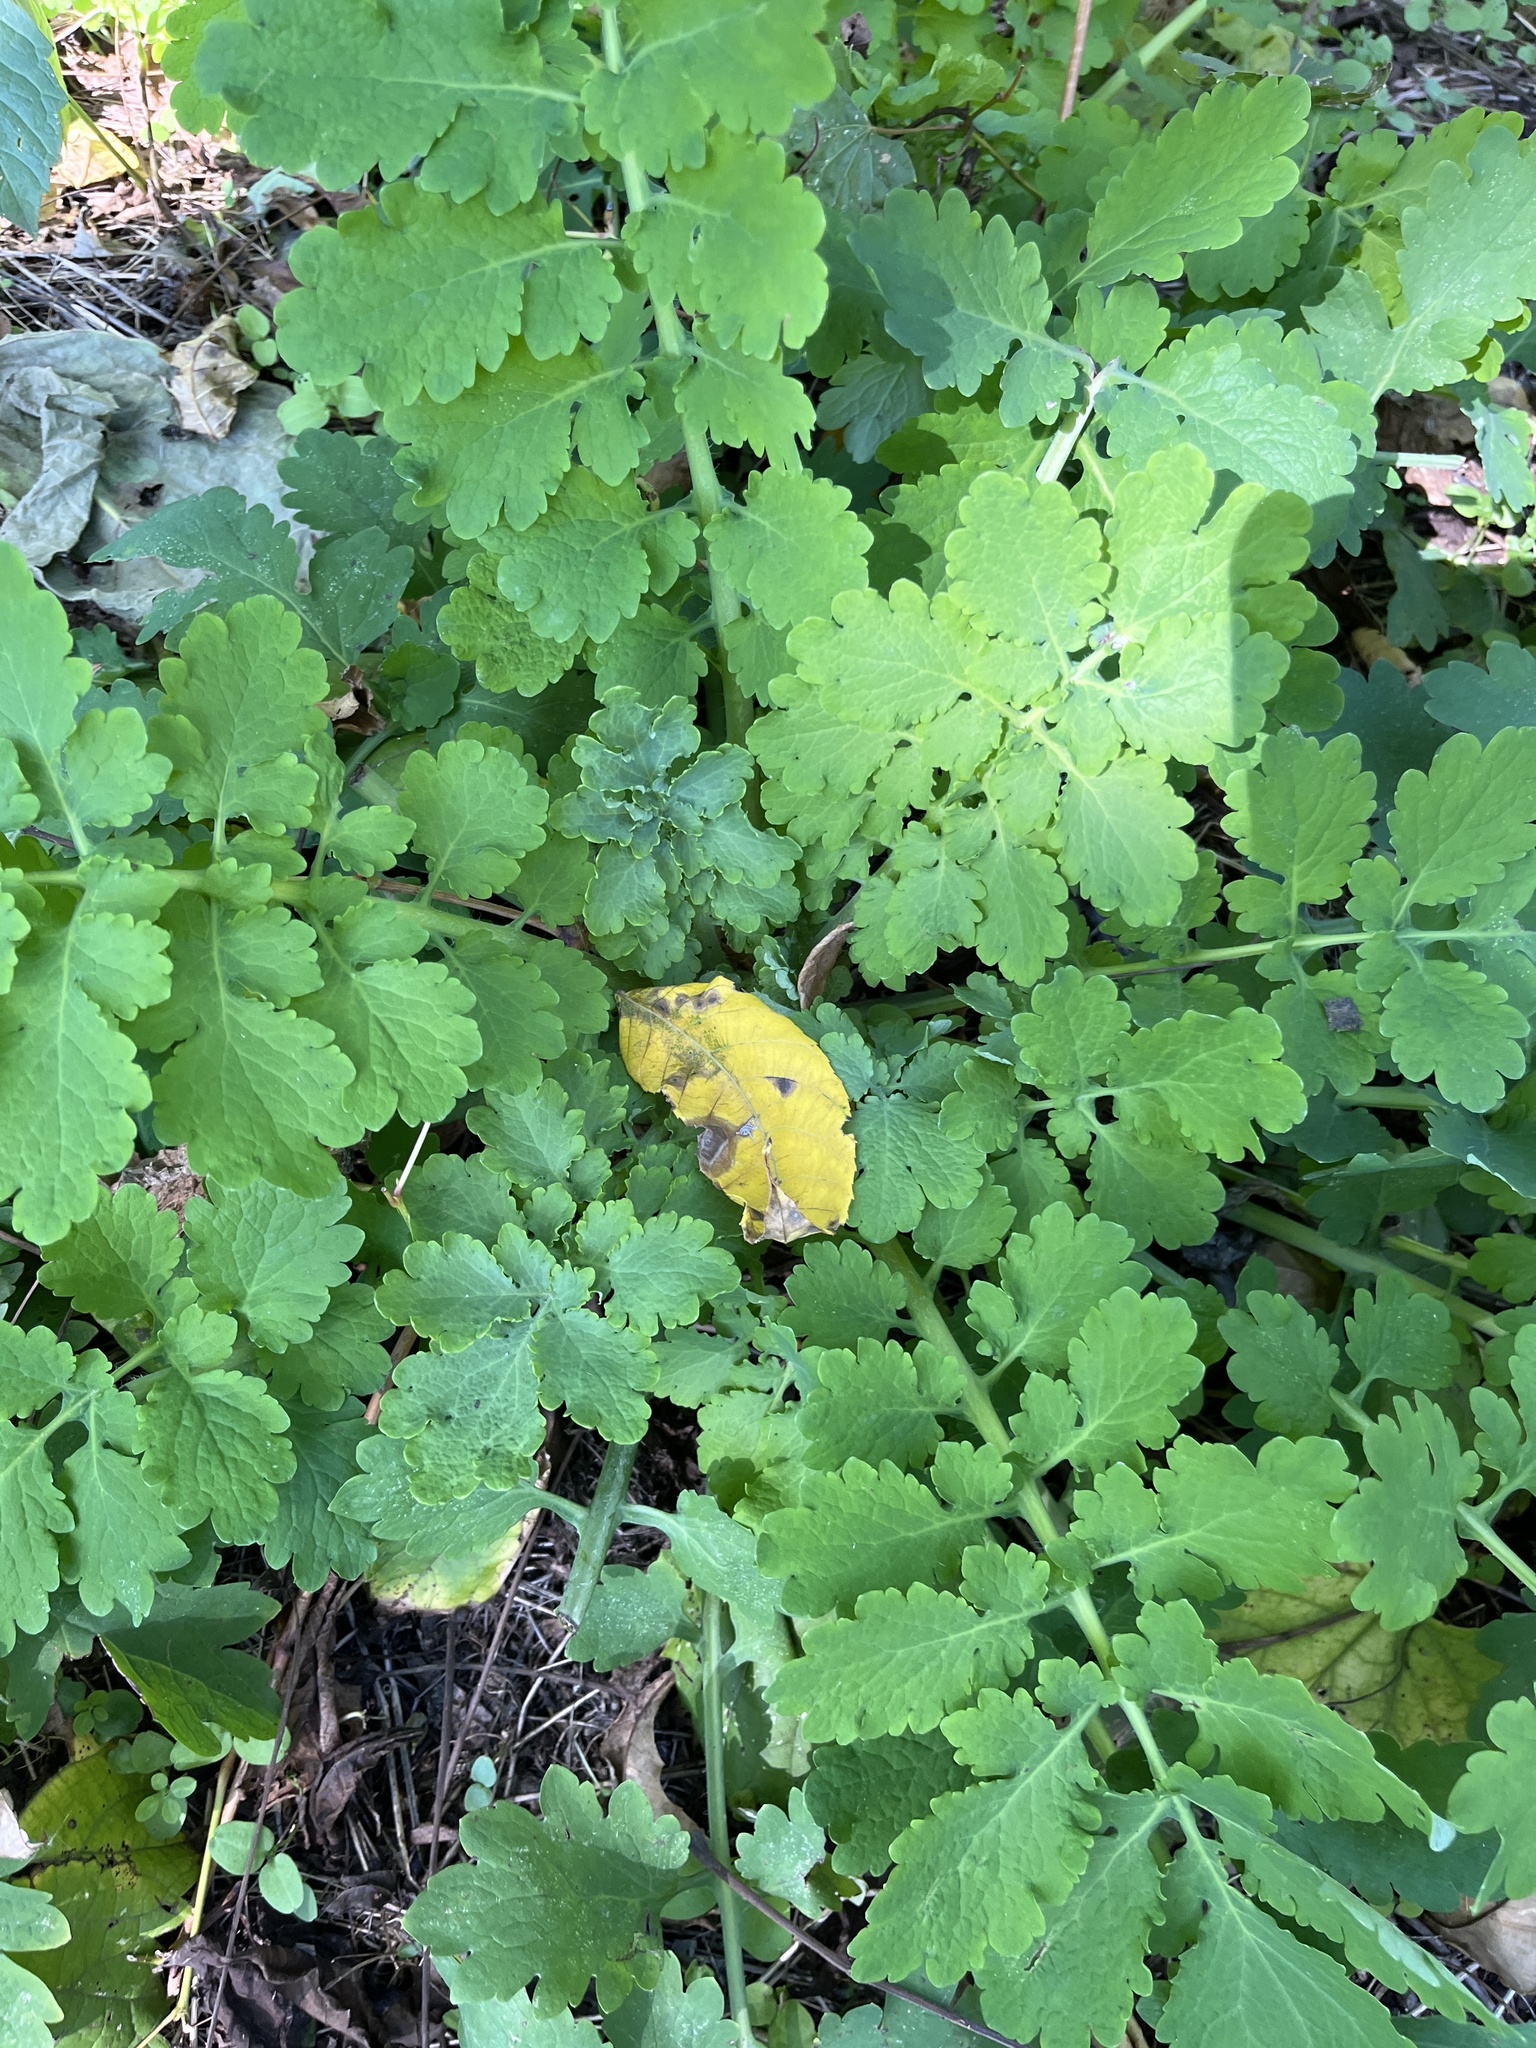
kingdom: Plantae
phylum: Tracheophyta
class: Magnoliopsida
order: Ranunculales
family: Papaveraceae
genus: Chelidonium
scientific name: Chelidonium majus
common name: Greater celandine
